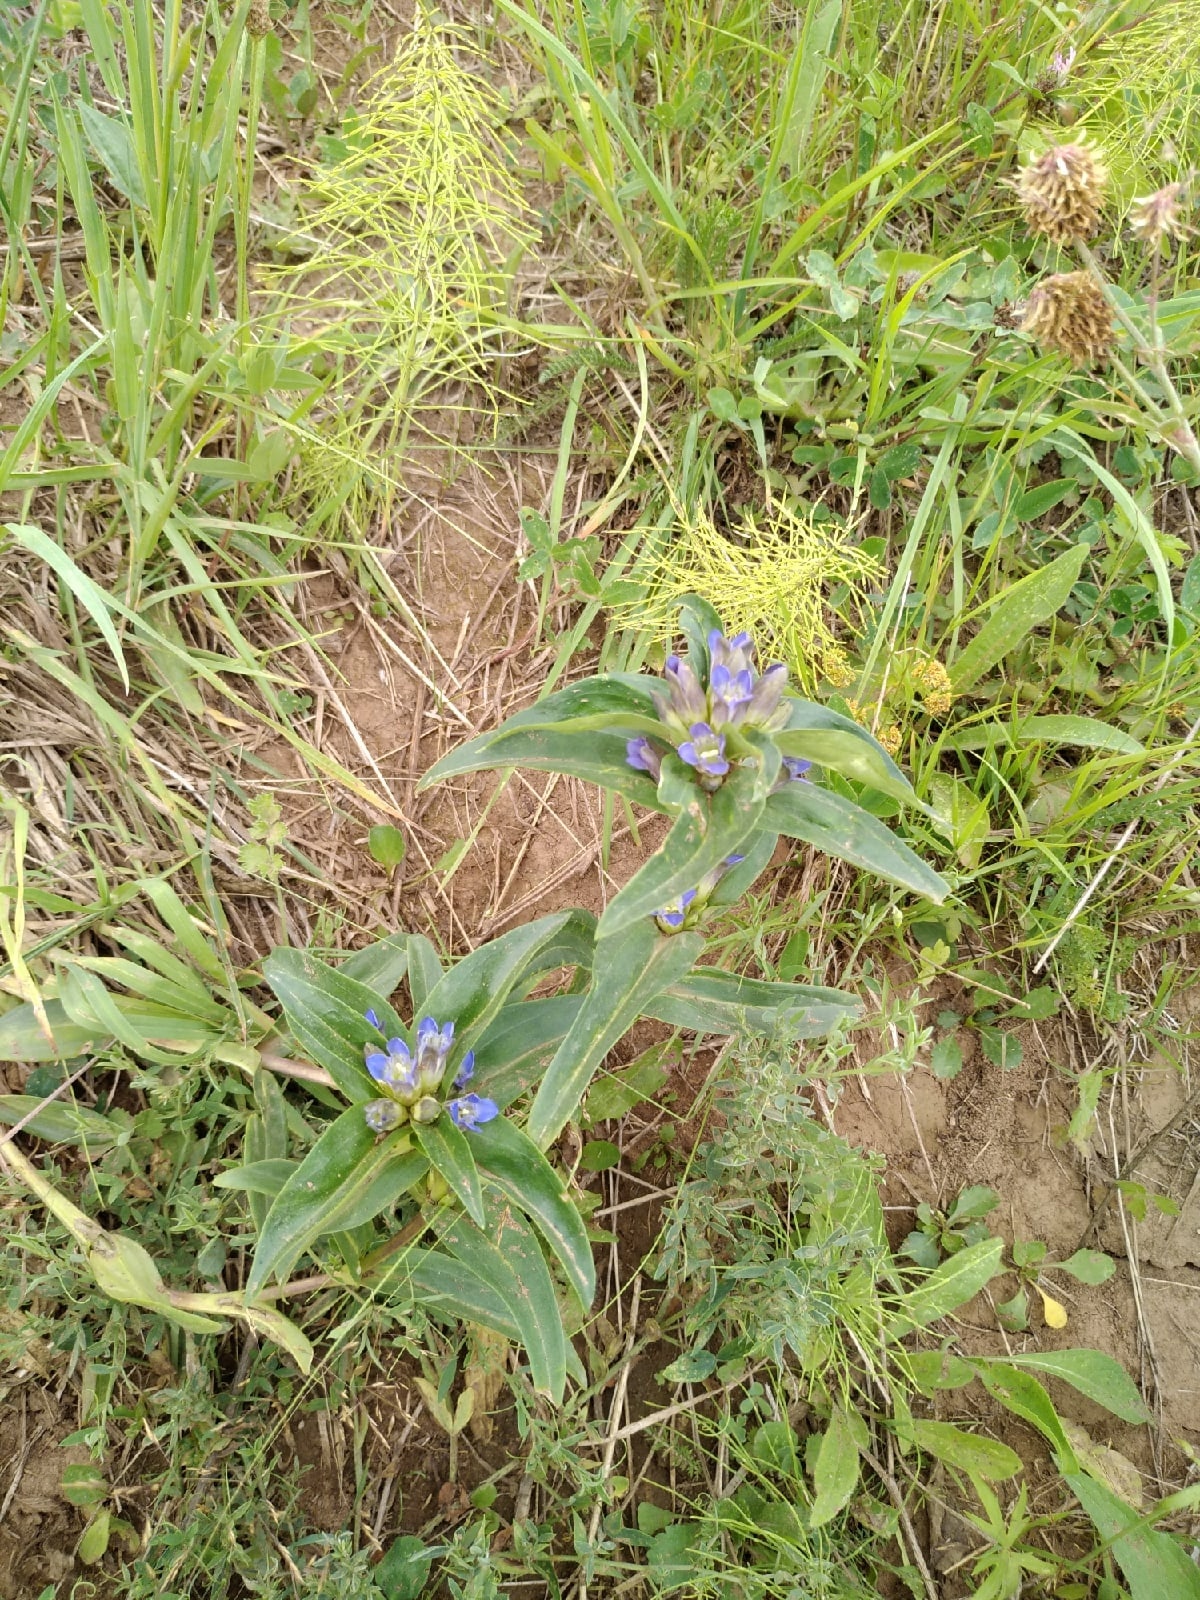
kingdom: Plantae
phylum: Tracheophyta
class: Magnoliopsida
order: Gentianales
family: Gentianaceae
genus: Gentiana
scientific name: Gentiana cruciata
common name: Cross gentian
